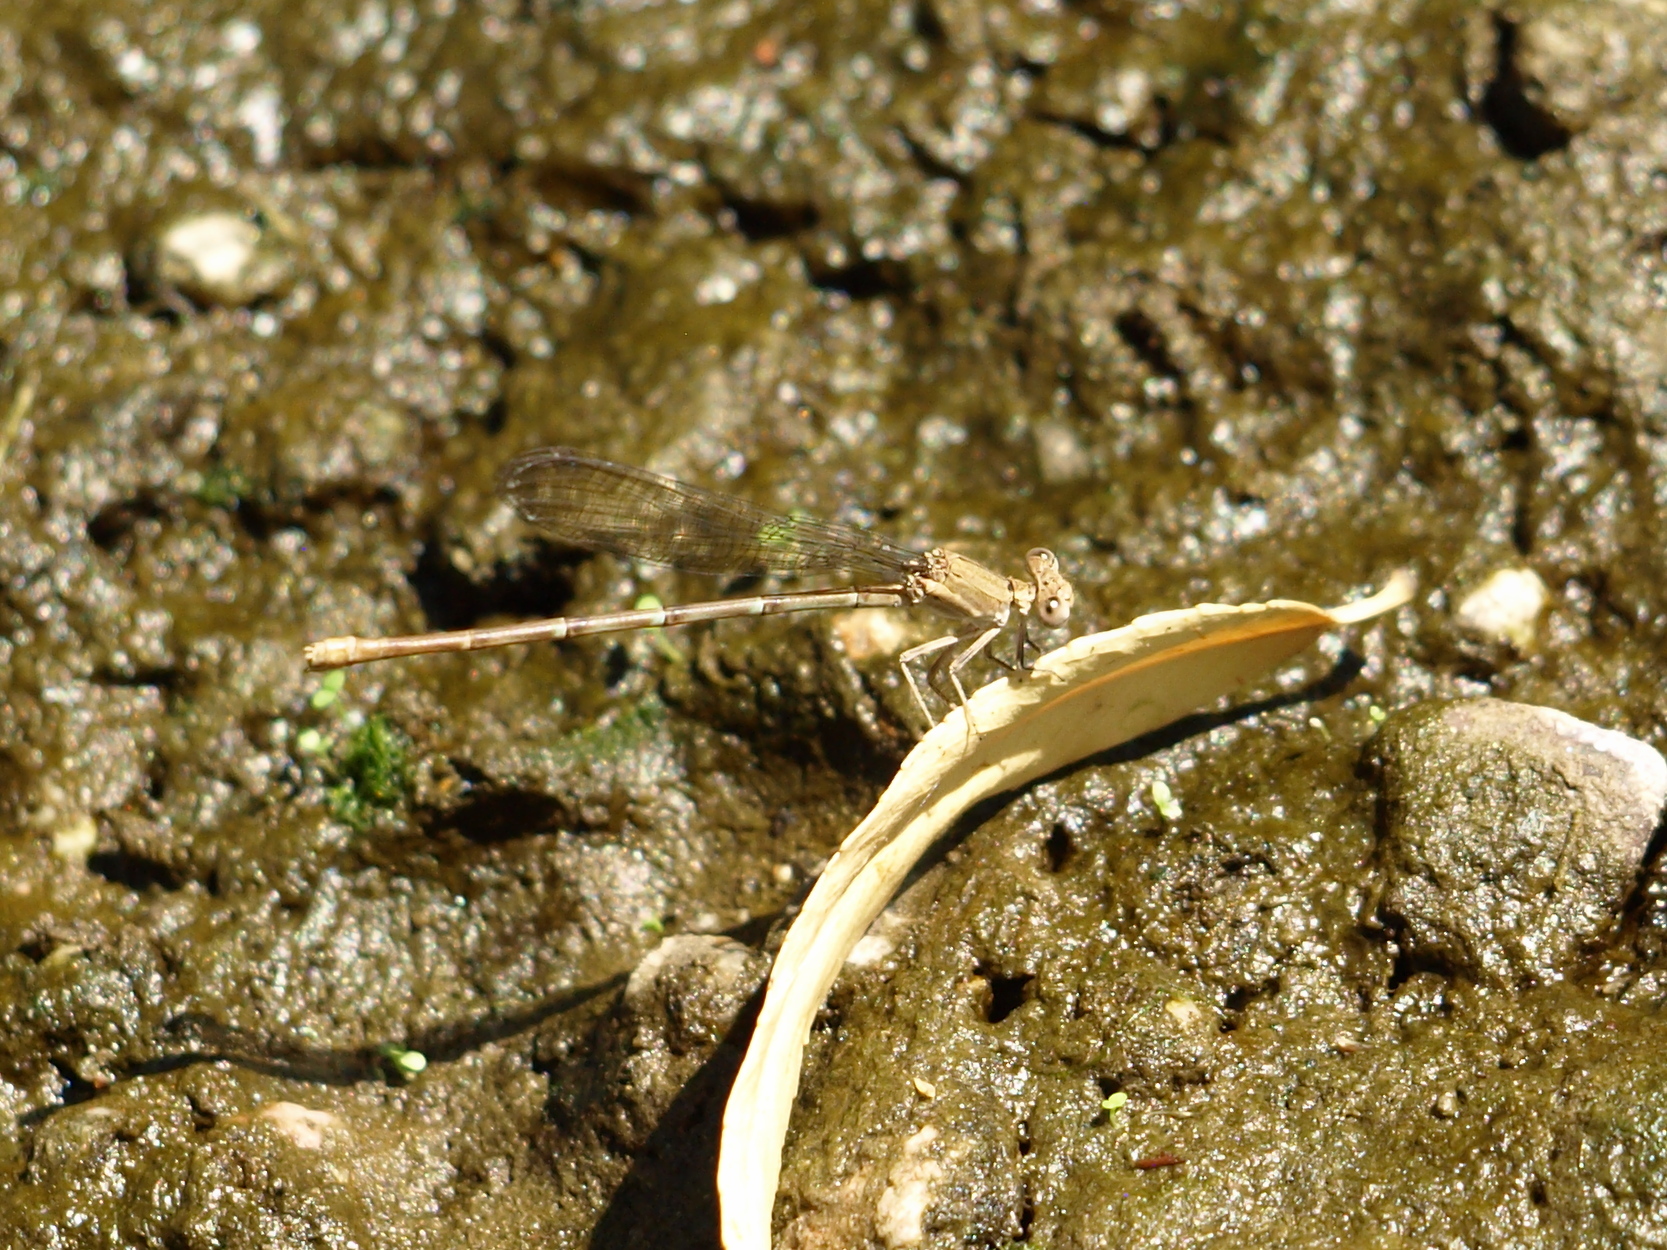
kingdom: Animalia
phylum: Arthropoda
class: Insecta
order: Odonata
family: Coenagrionidae
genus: Argia
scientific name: Argia sedula
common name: Blue-ringed dancer
